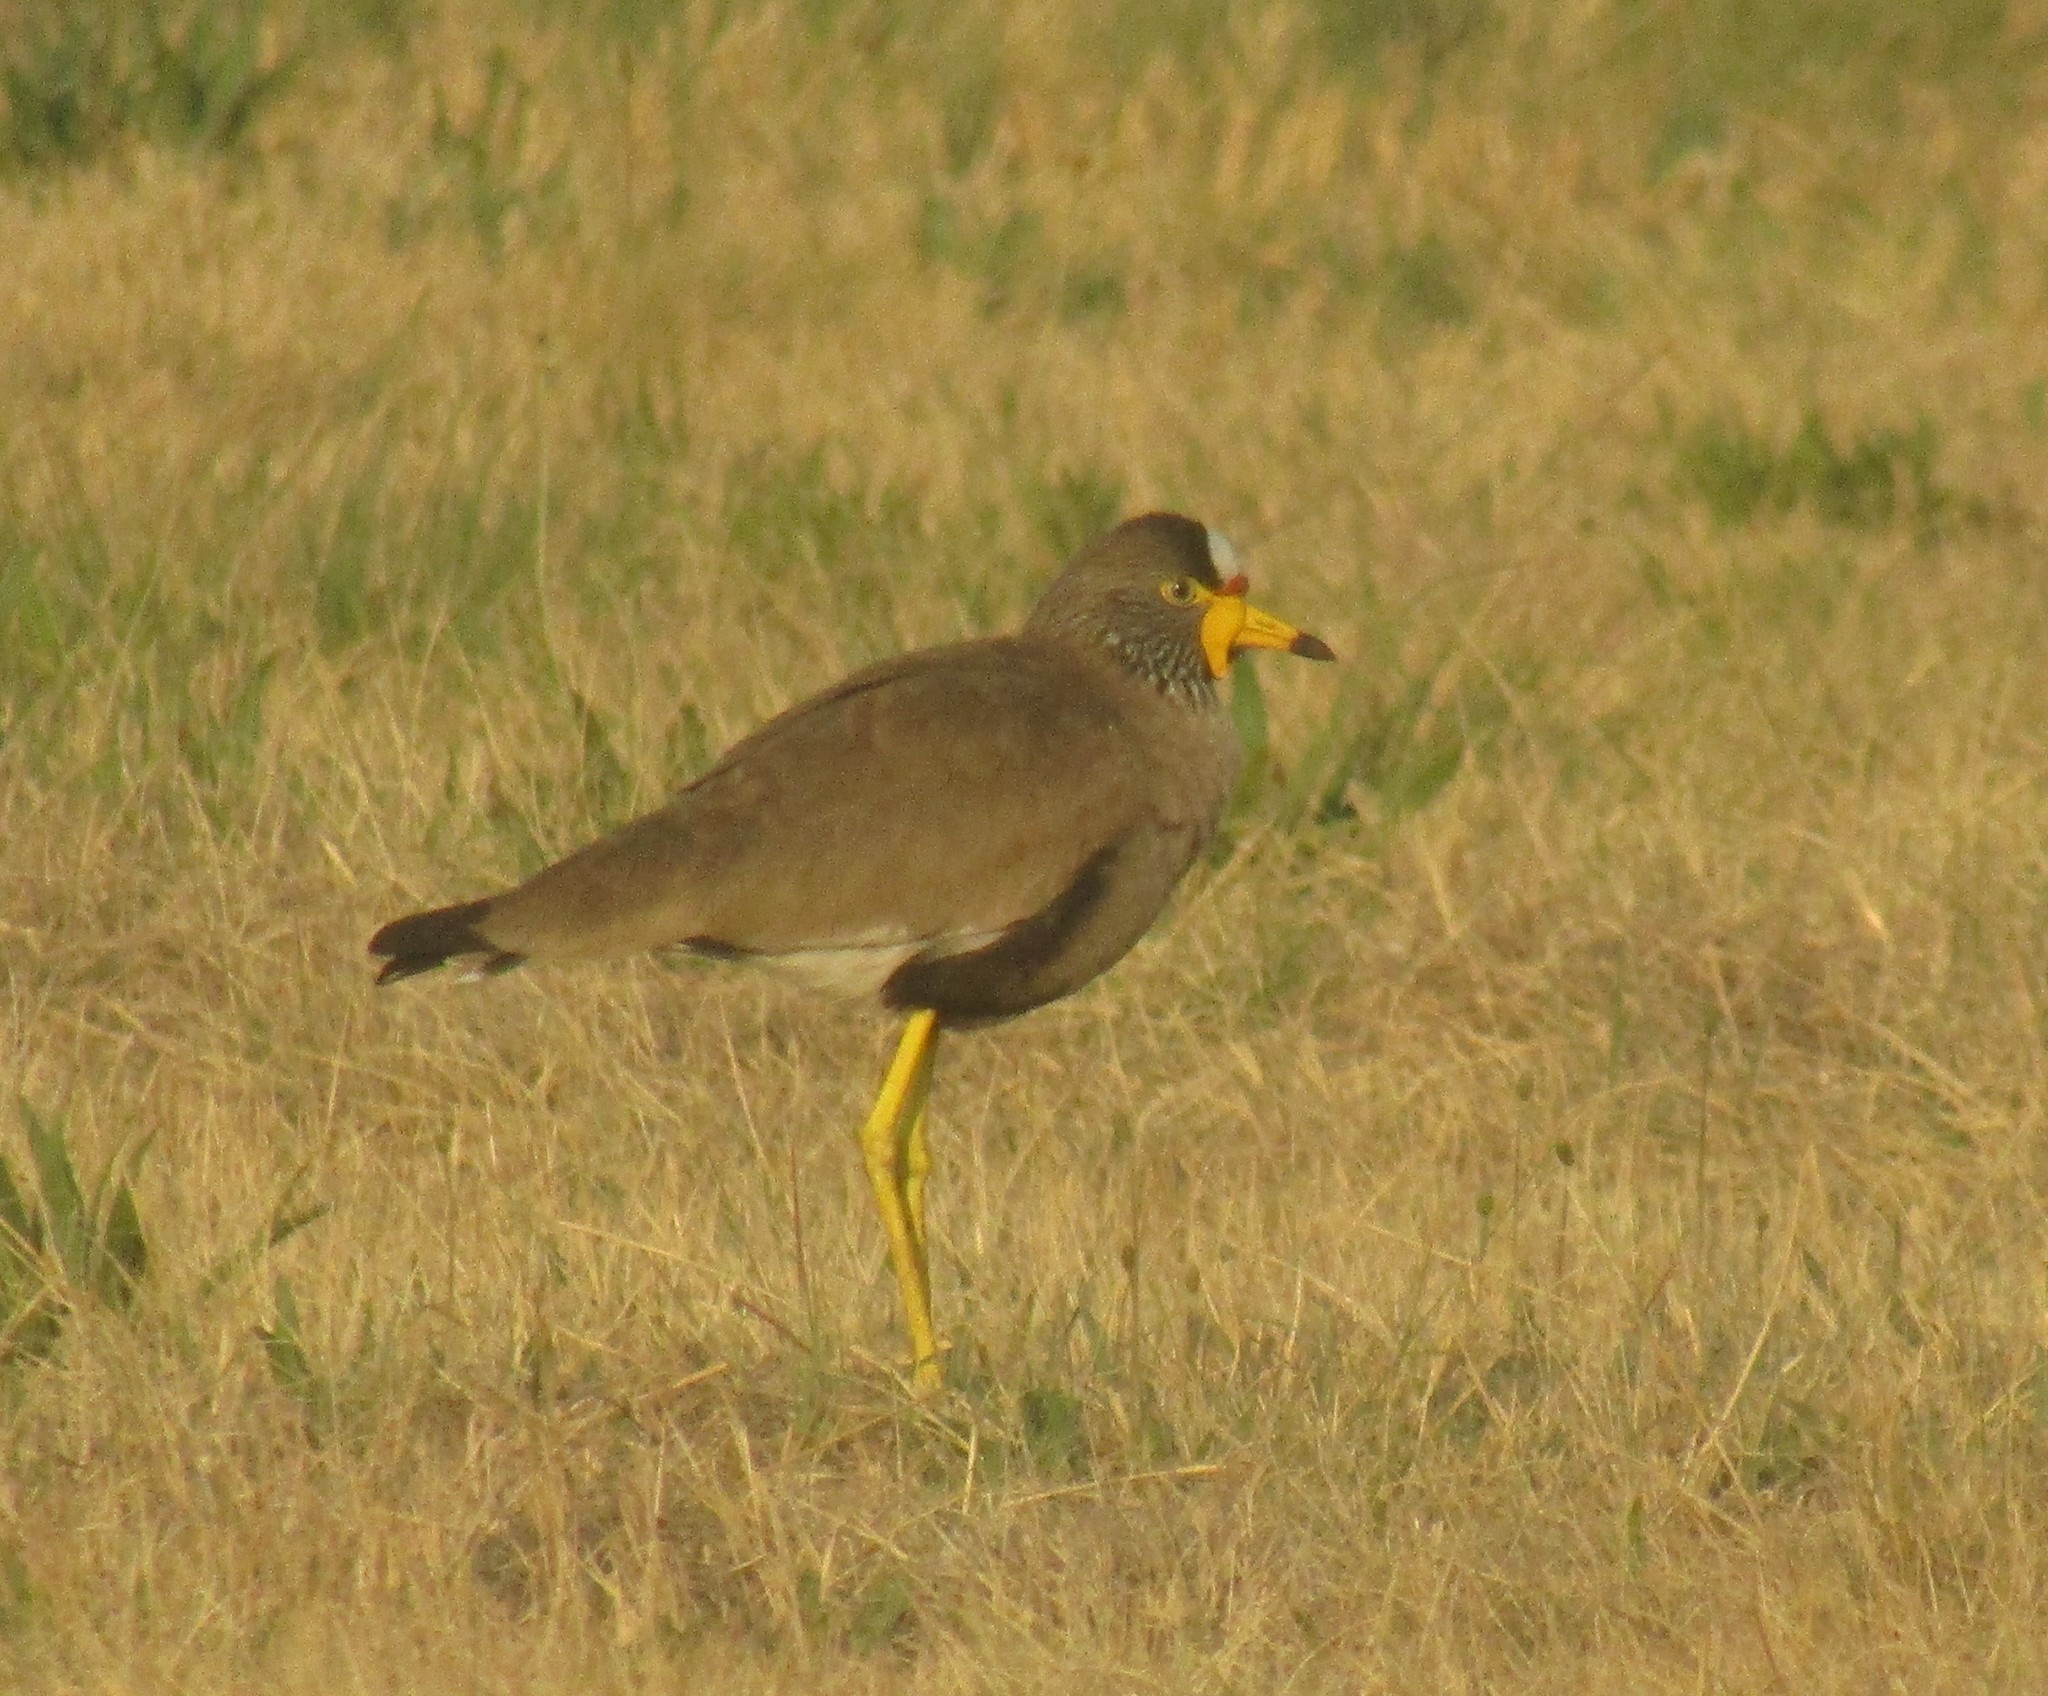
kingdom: Animalia
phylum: Chordata
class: Aves
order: Charadriiformes
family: Charadriidae
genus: Vanellus
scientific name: Vanellus senegallus
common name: African wattled lapwing
